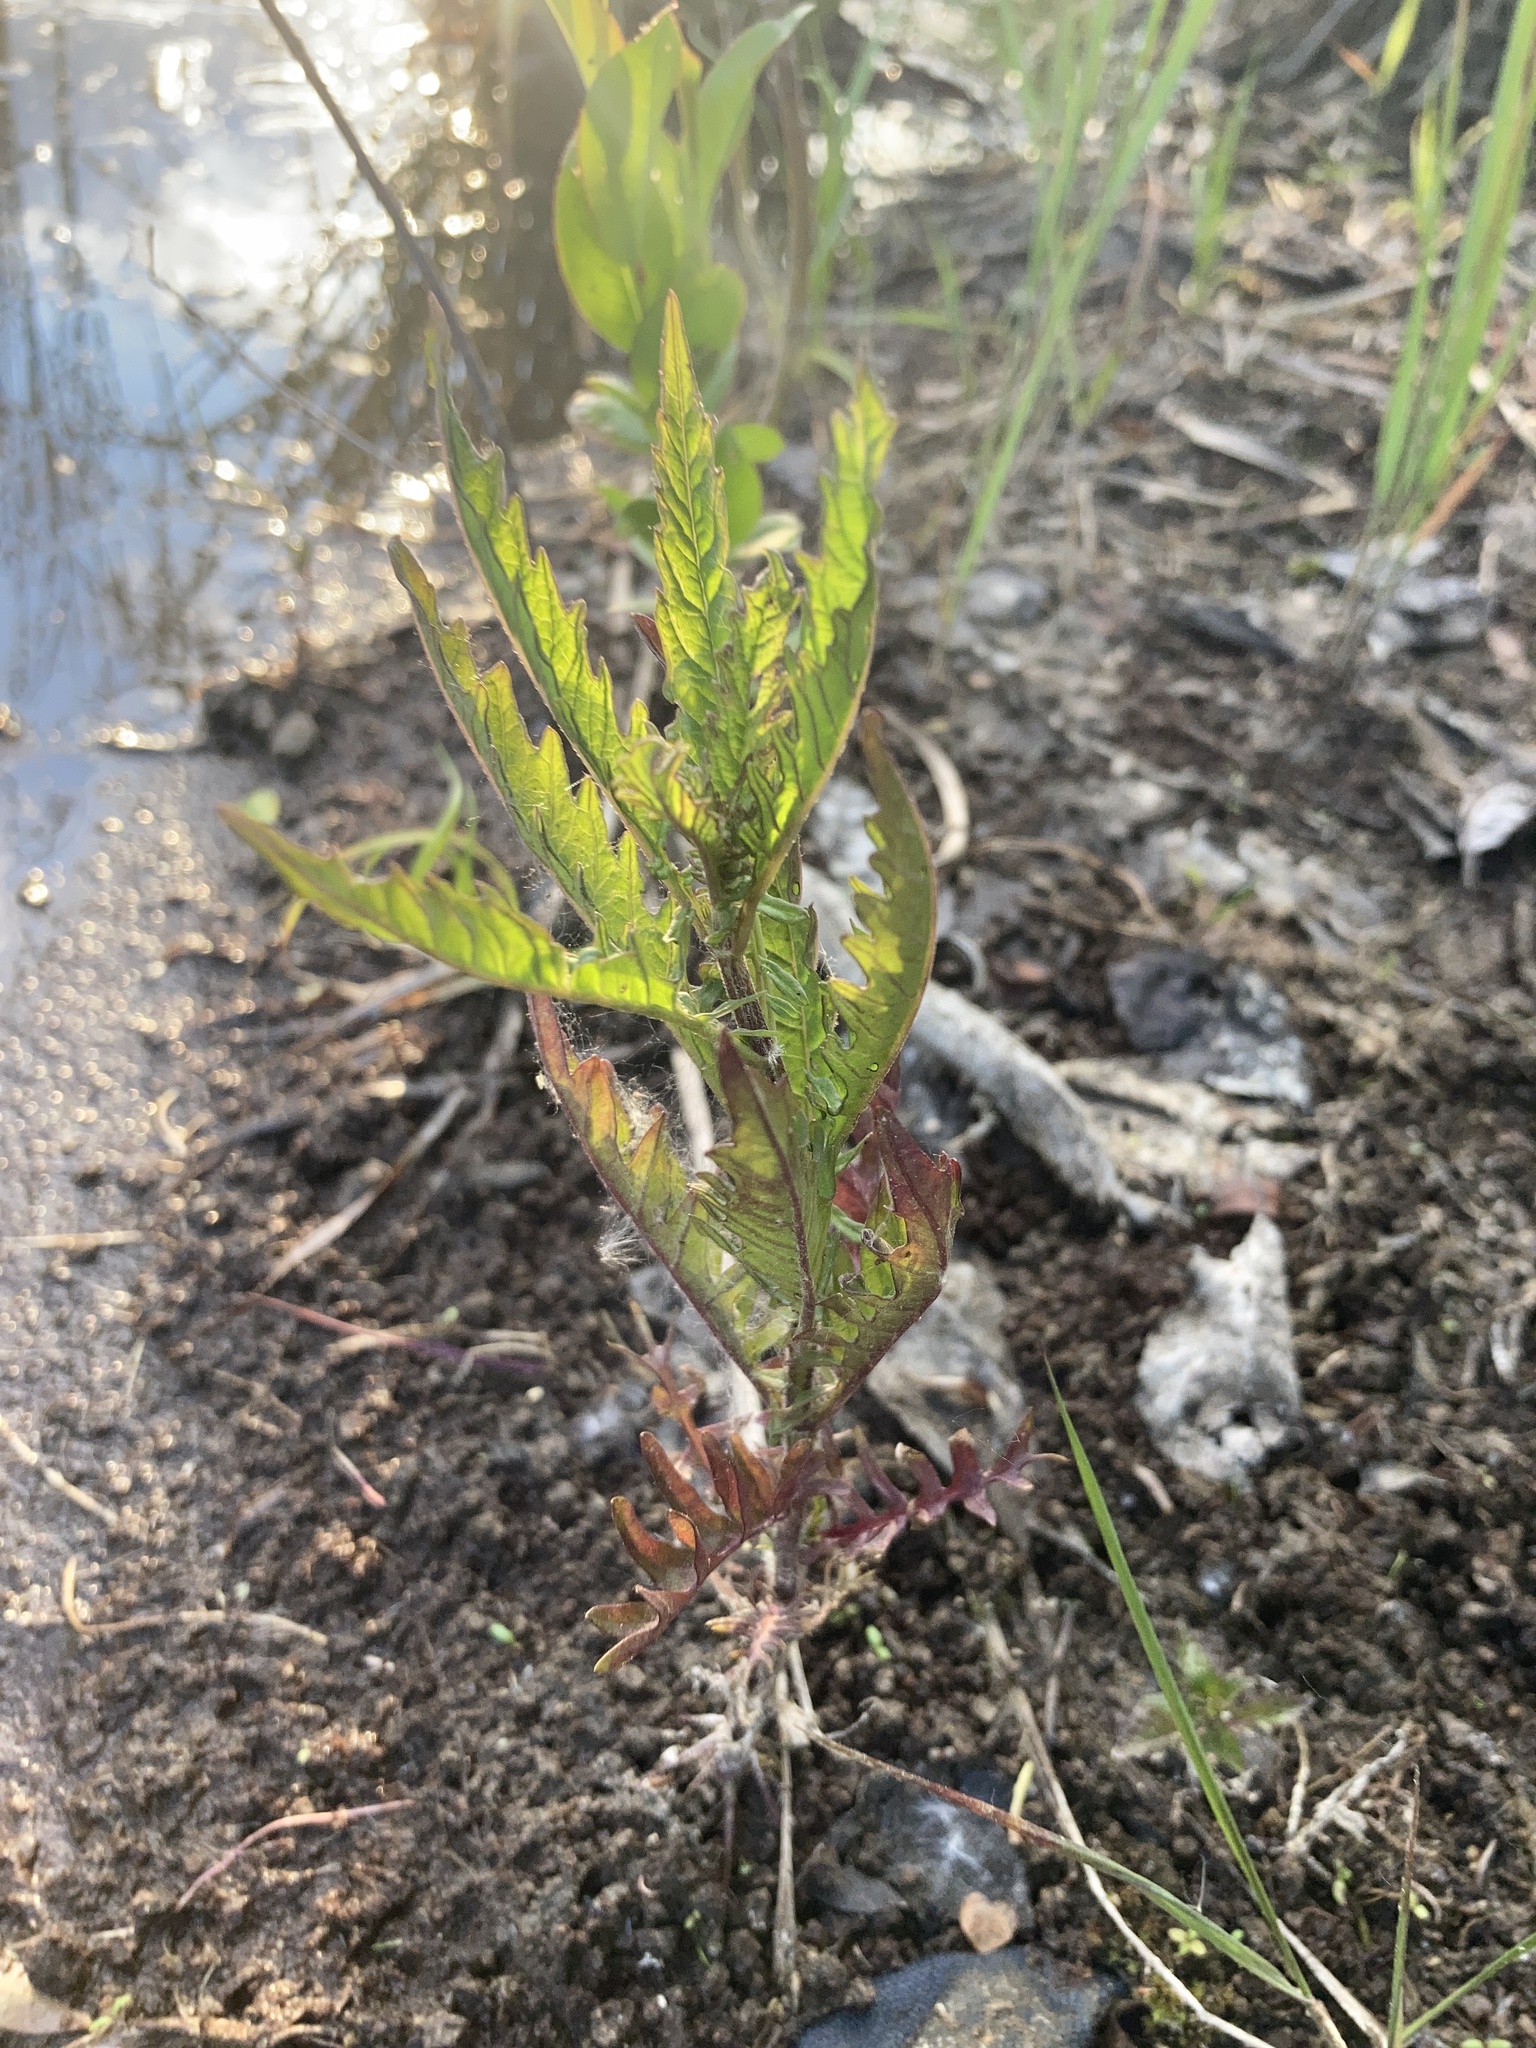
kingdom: Plantae
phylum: Tracheophyta
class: Magnoliopsida
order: Lamiales
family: Lamiaceae
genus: Lycopus
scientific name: Lycopus europaeus
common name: European bugleweed
